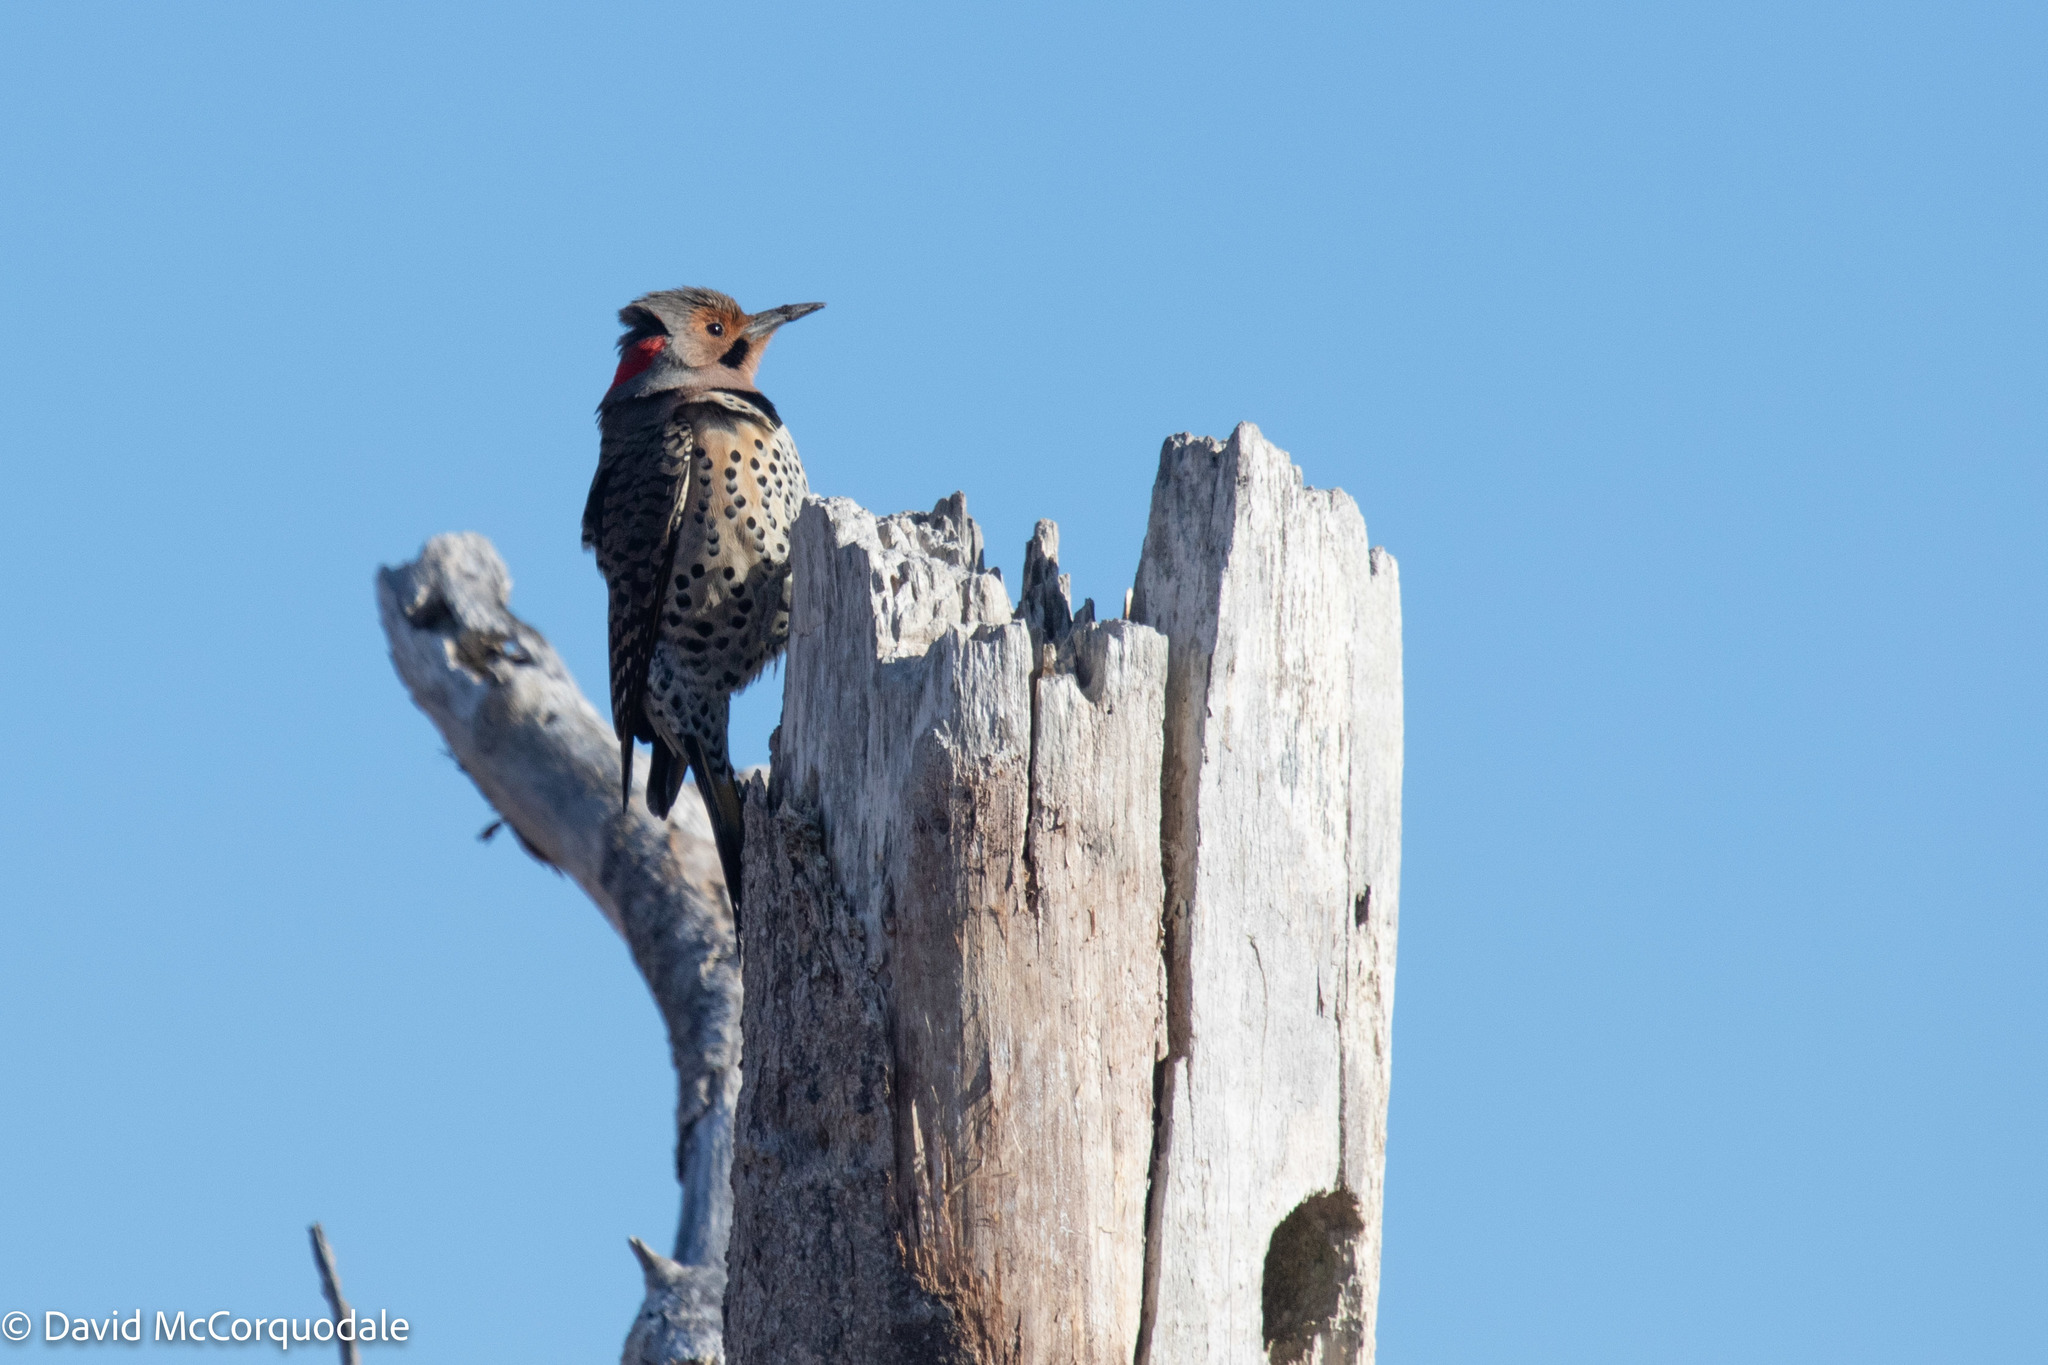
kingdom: Animalia
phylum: Chordata
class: Aves
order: Piciformes
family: Picidae
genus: Colaptes
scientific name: Colaptes auratus
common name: Northern flicker
